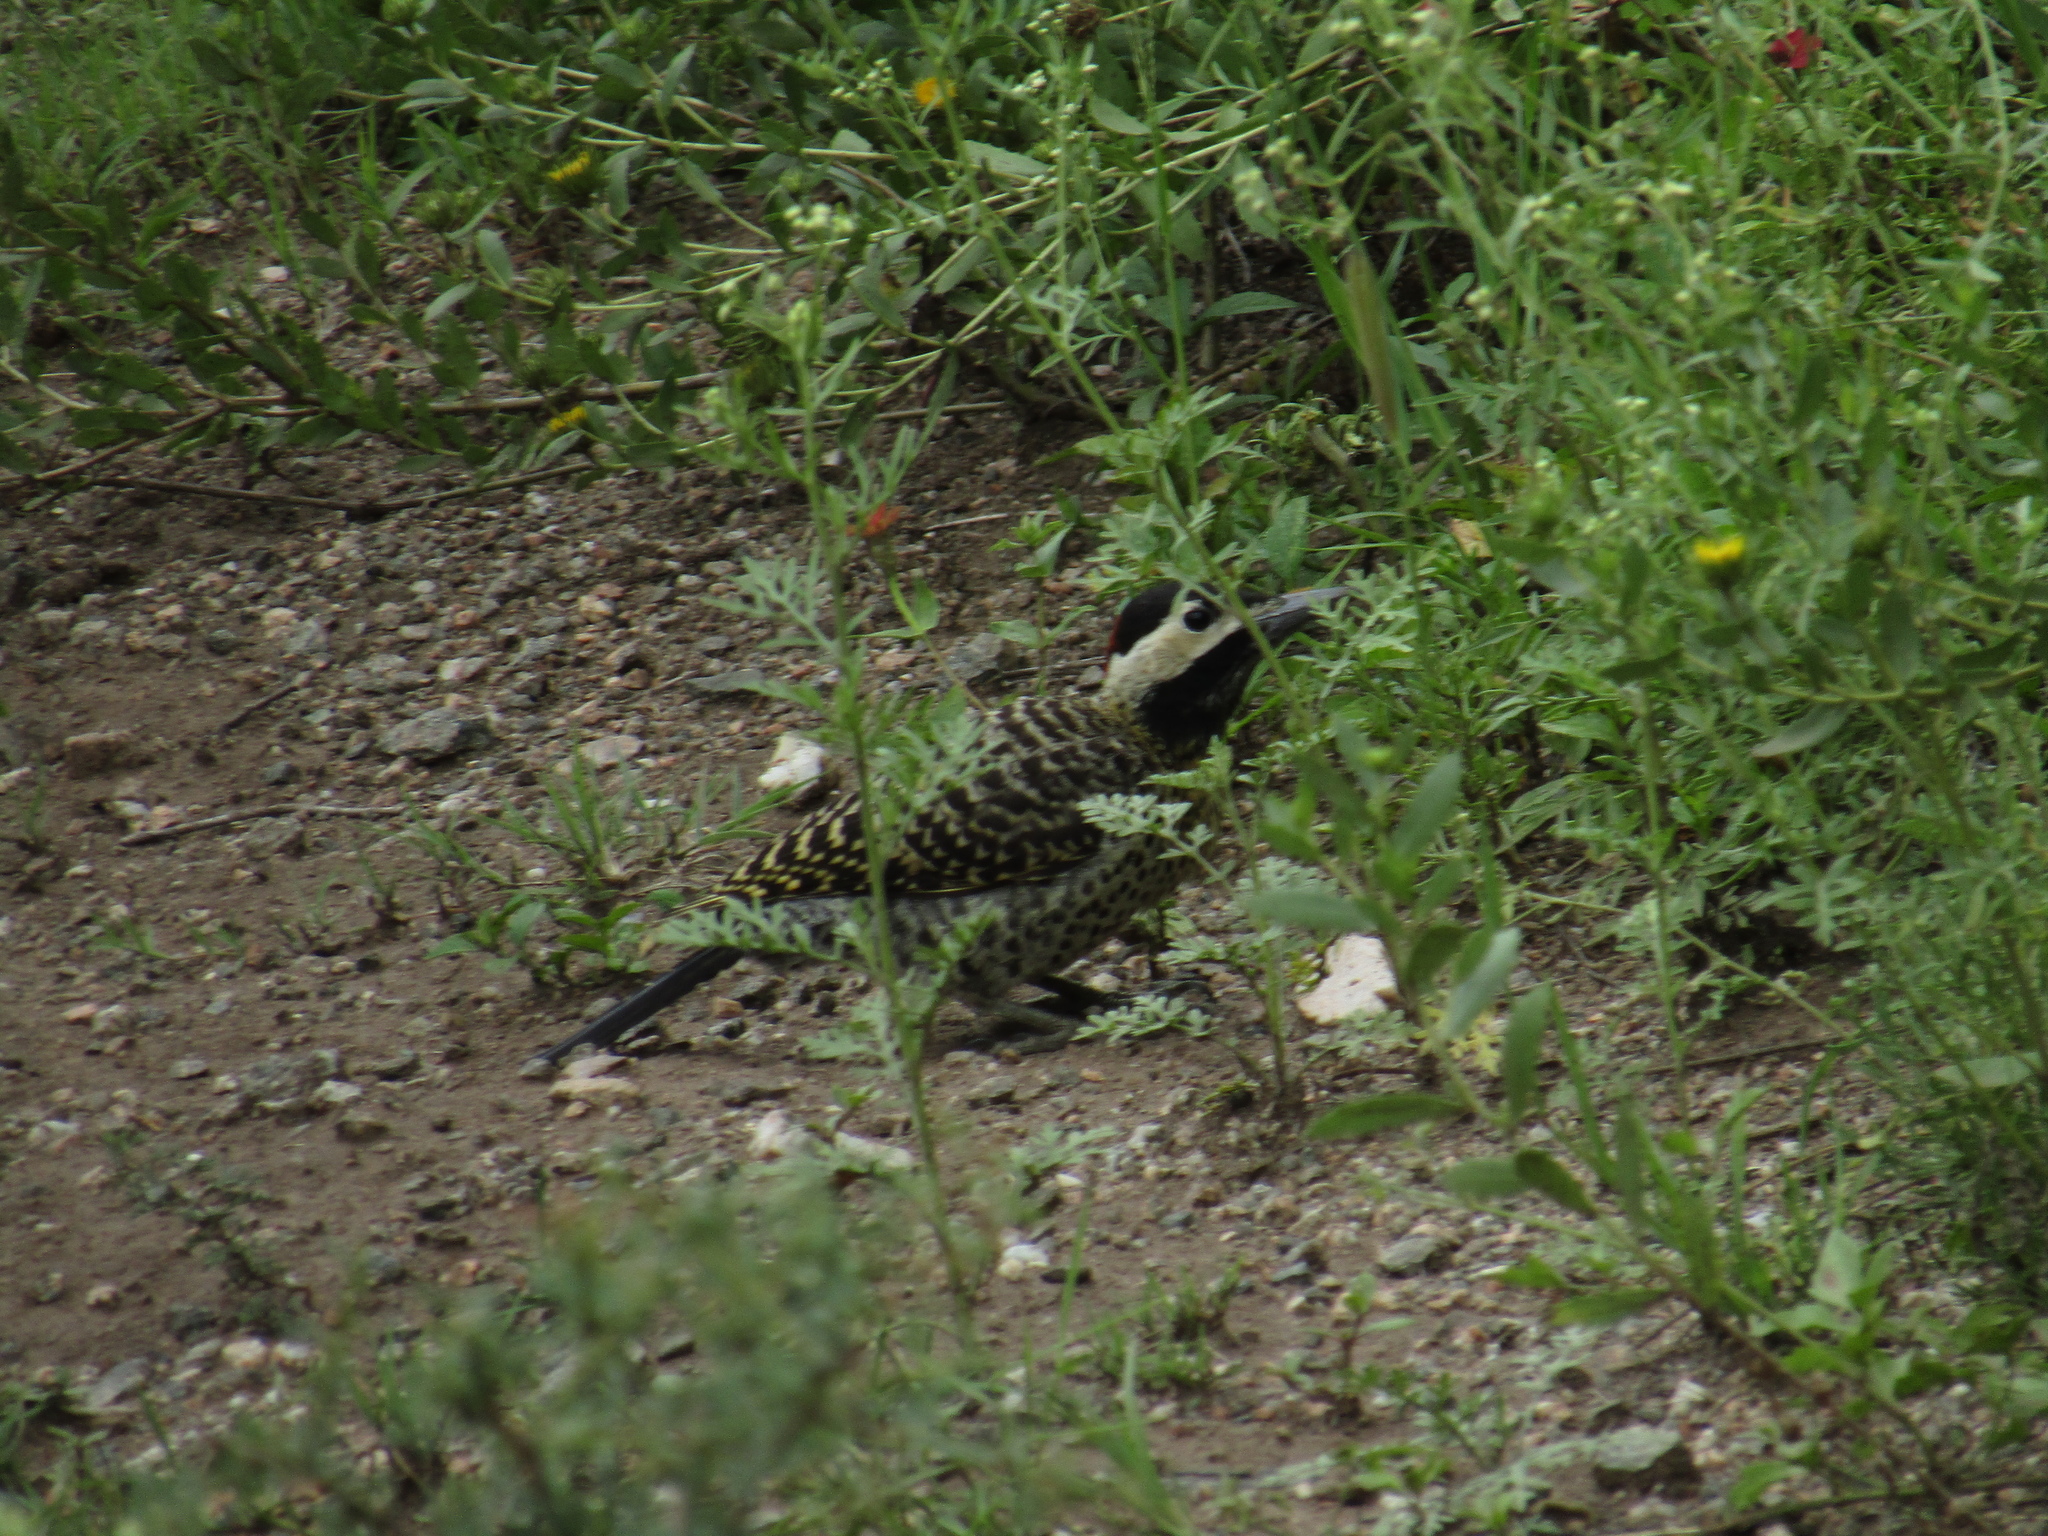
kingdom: Animalia
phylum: Chordata
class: Aves
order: Piciformes
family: Picidae
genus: Colaptes
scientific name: Colaptes melanochloros
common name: Green-barred woodpecker
